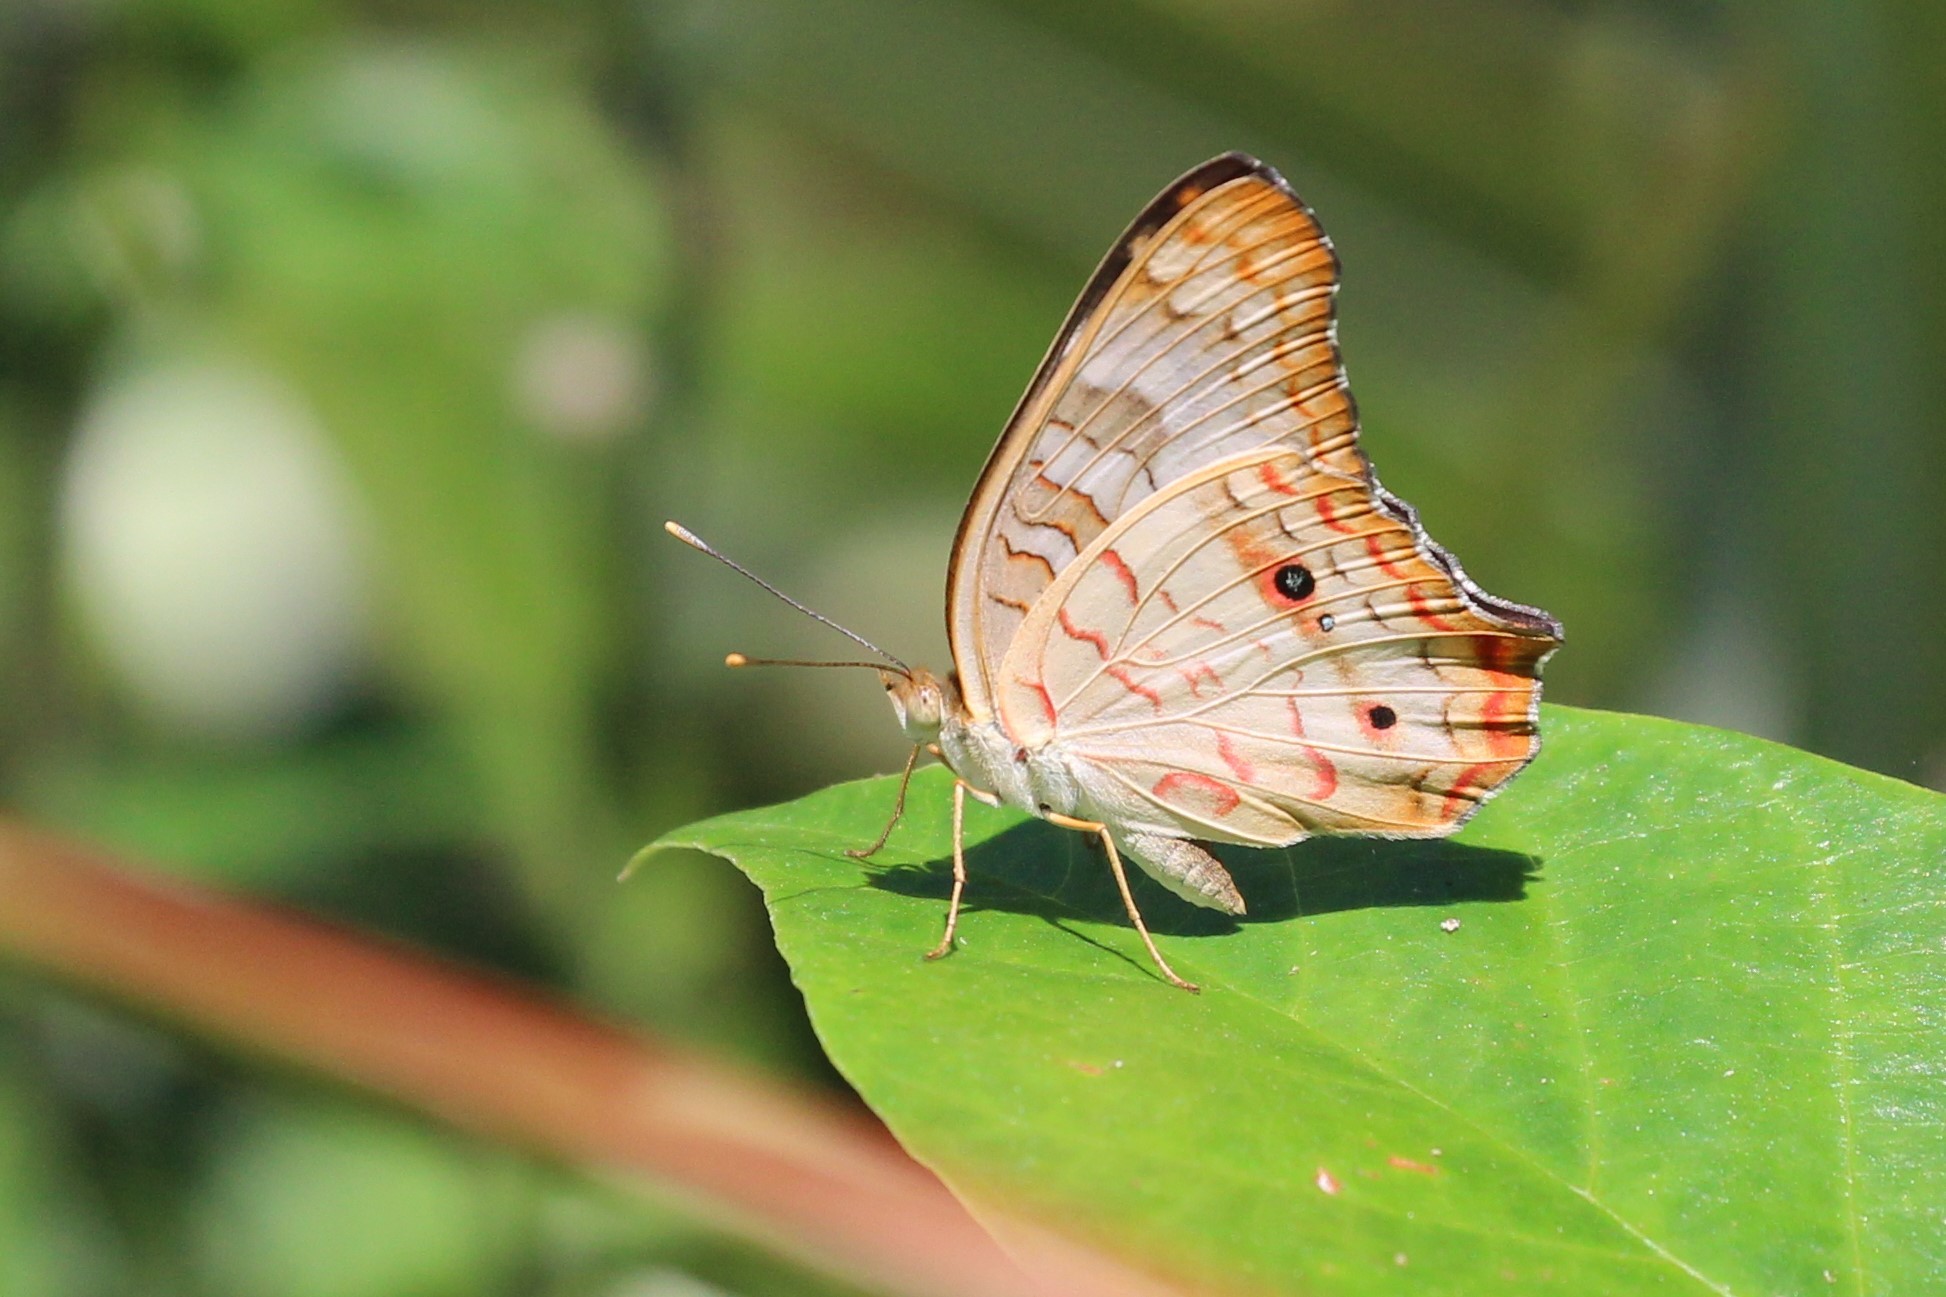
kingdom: Animalia
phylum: Arthropoda
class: Insecta
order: Lepidoptera
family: Nymphalidae
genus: Anartia
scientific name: Anartia jatrophae
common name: White peacock
